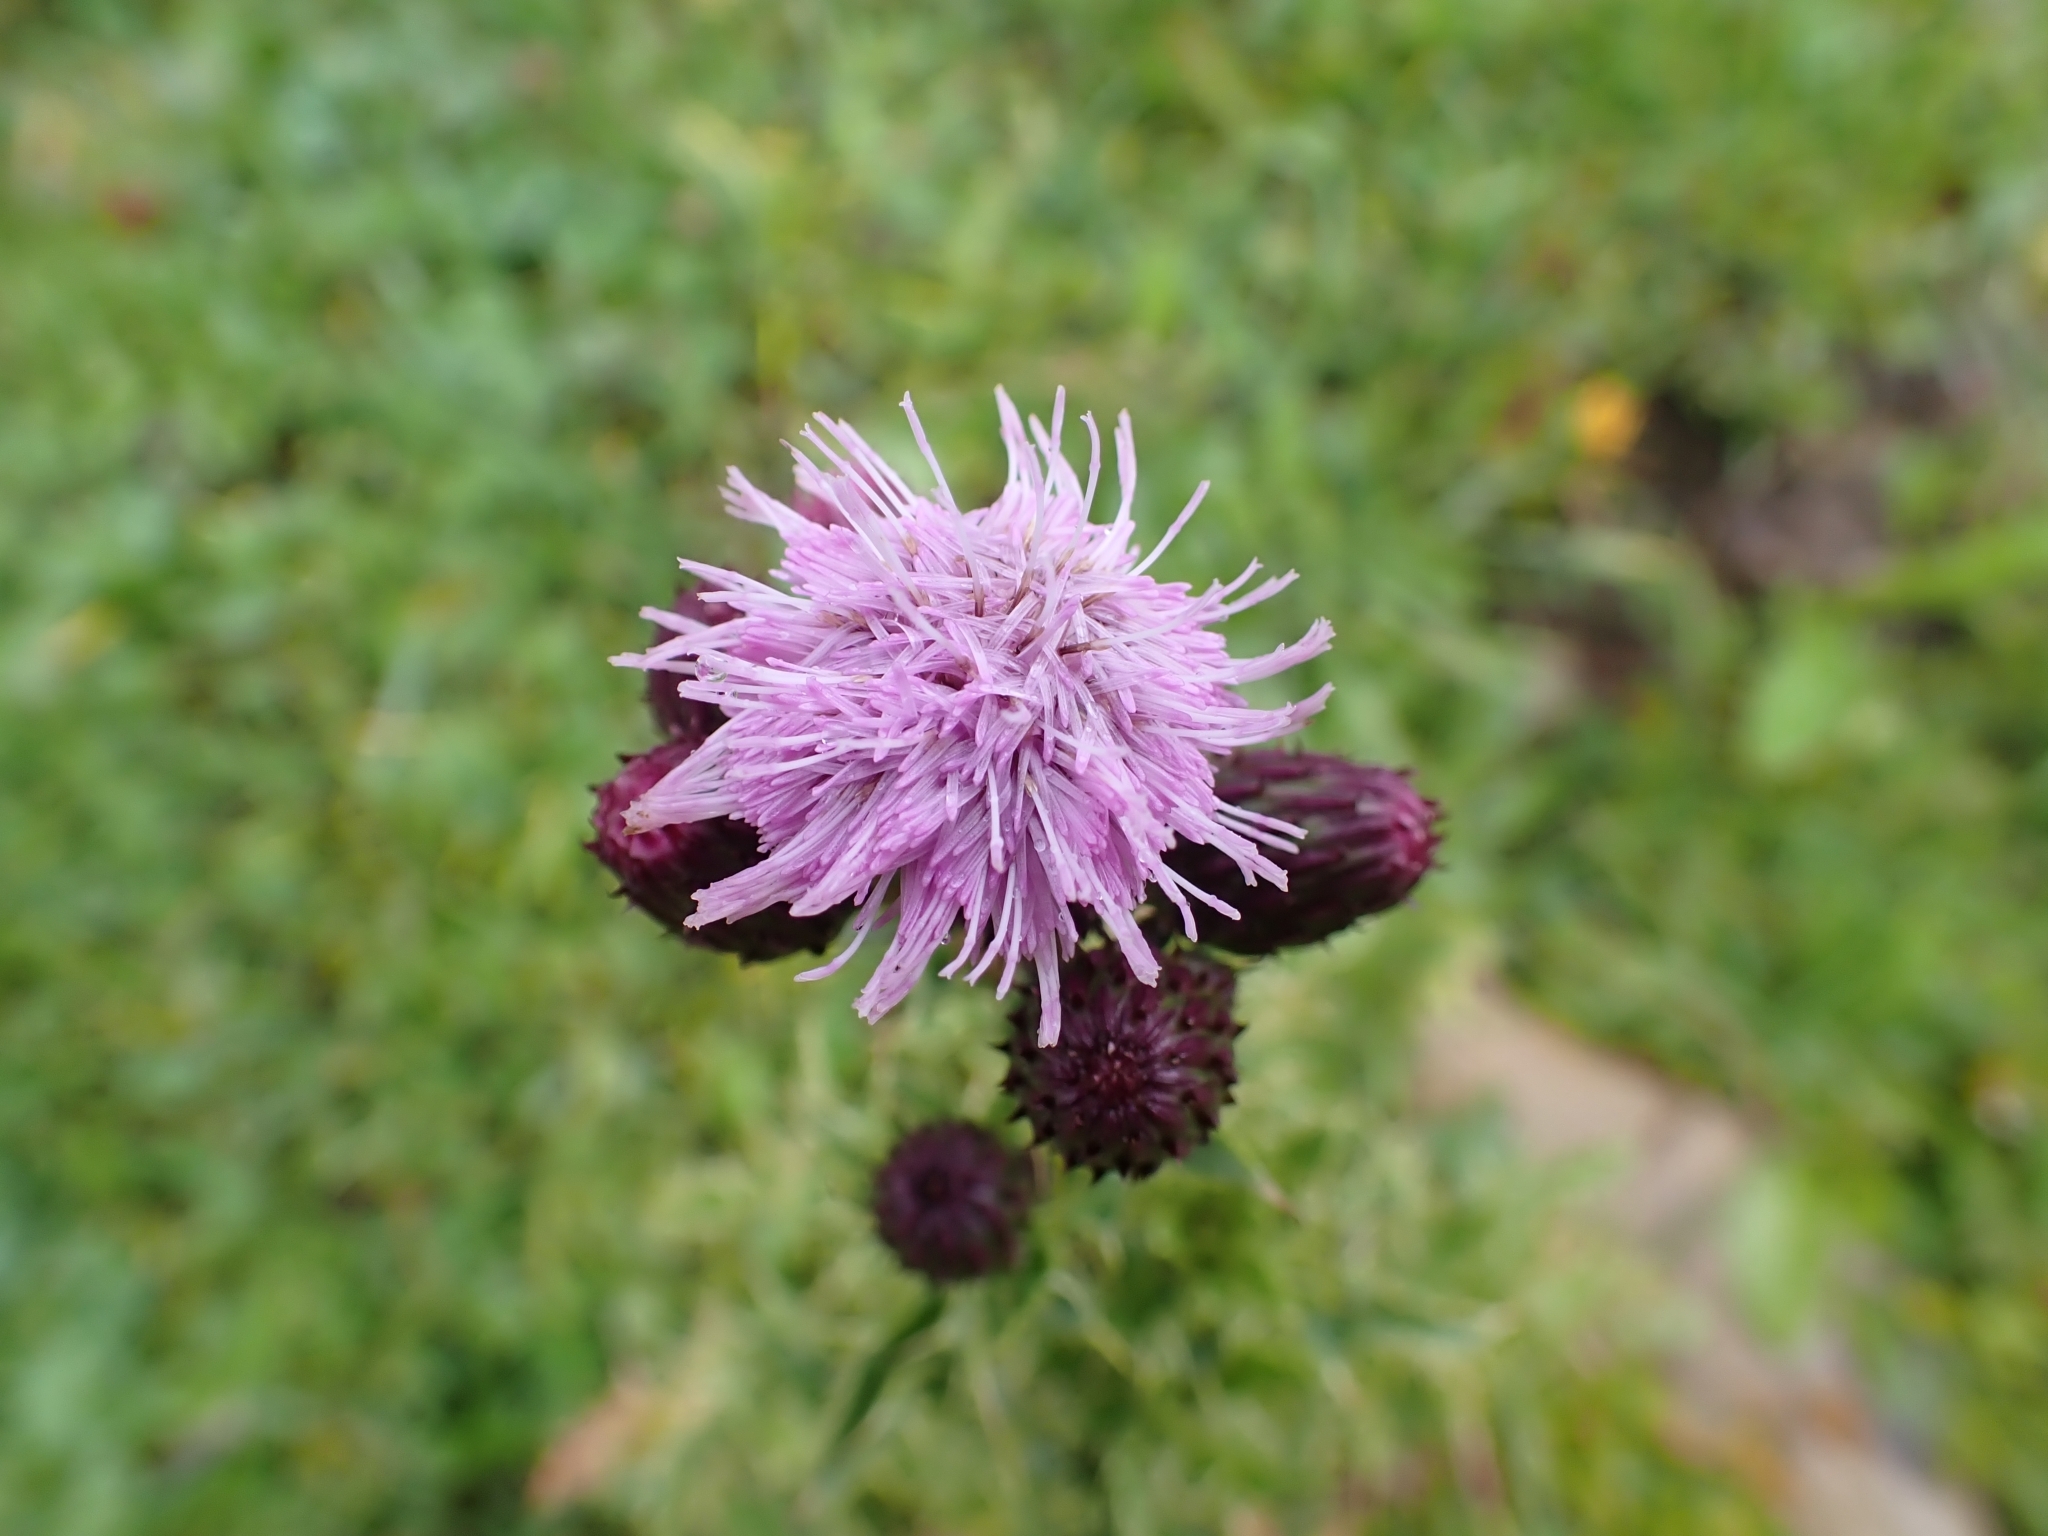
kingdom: Plantae
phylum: Tracheophyta
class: Magnoliopsida
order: Asterales
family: Asteraceae
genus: Cirsium
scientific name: Cirsium arvense
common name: Creeping thistle
